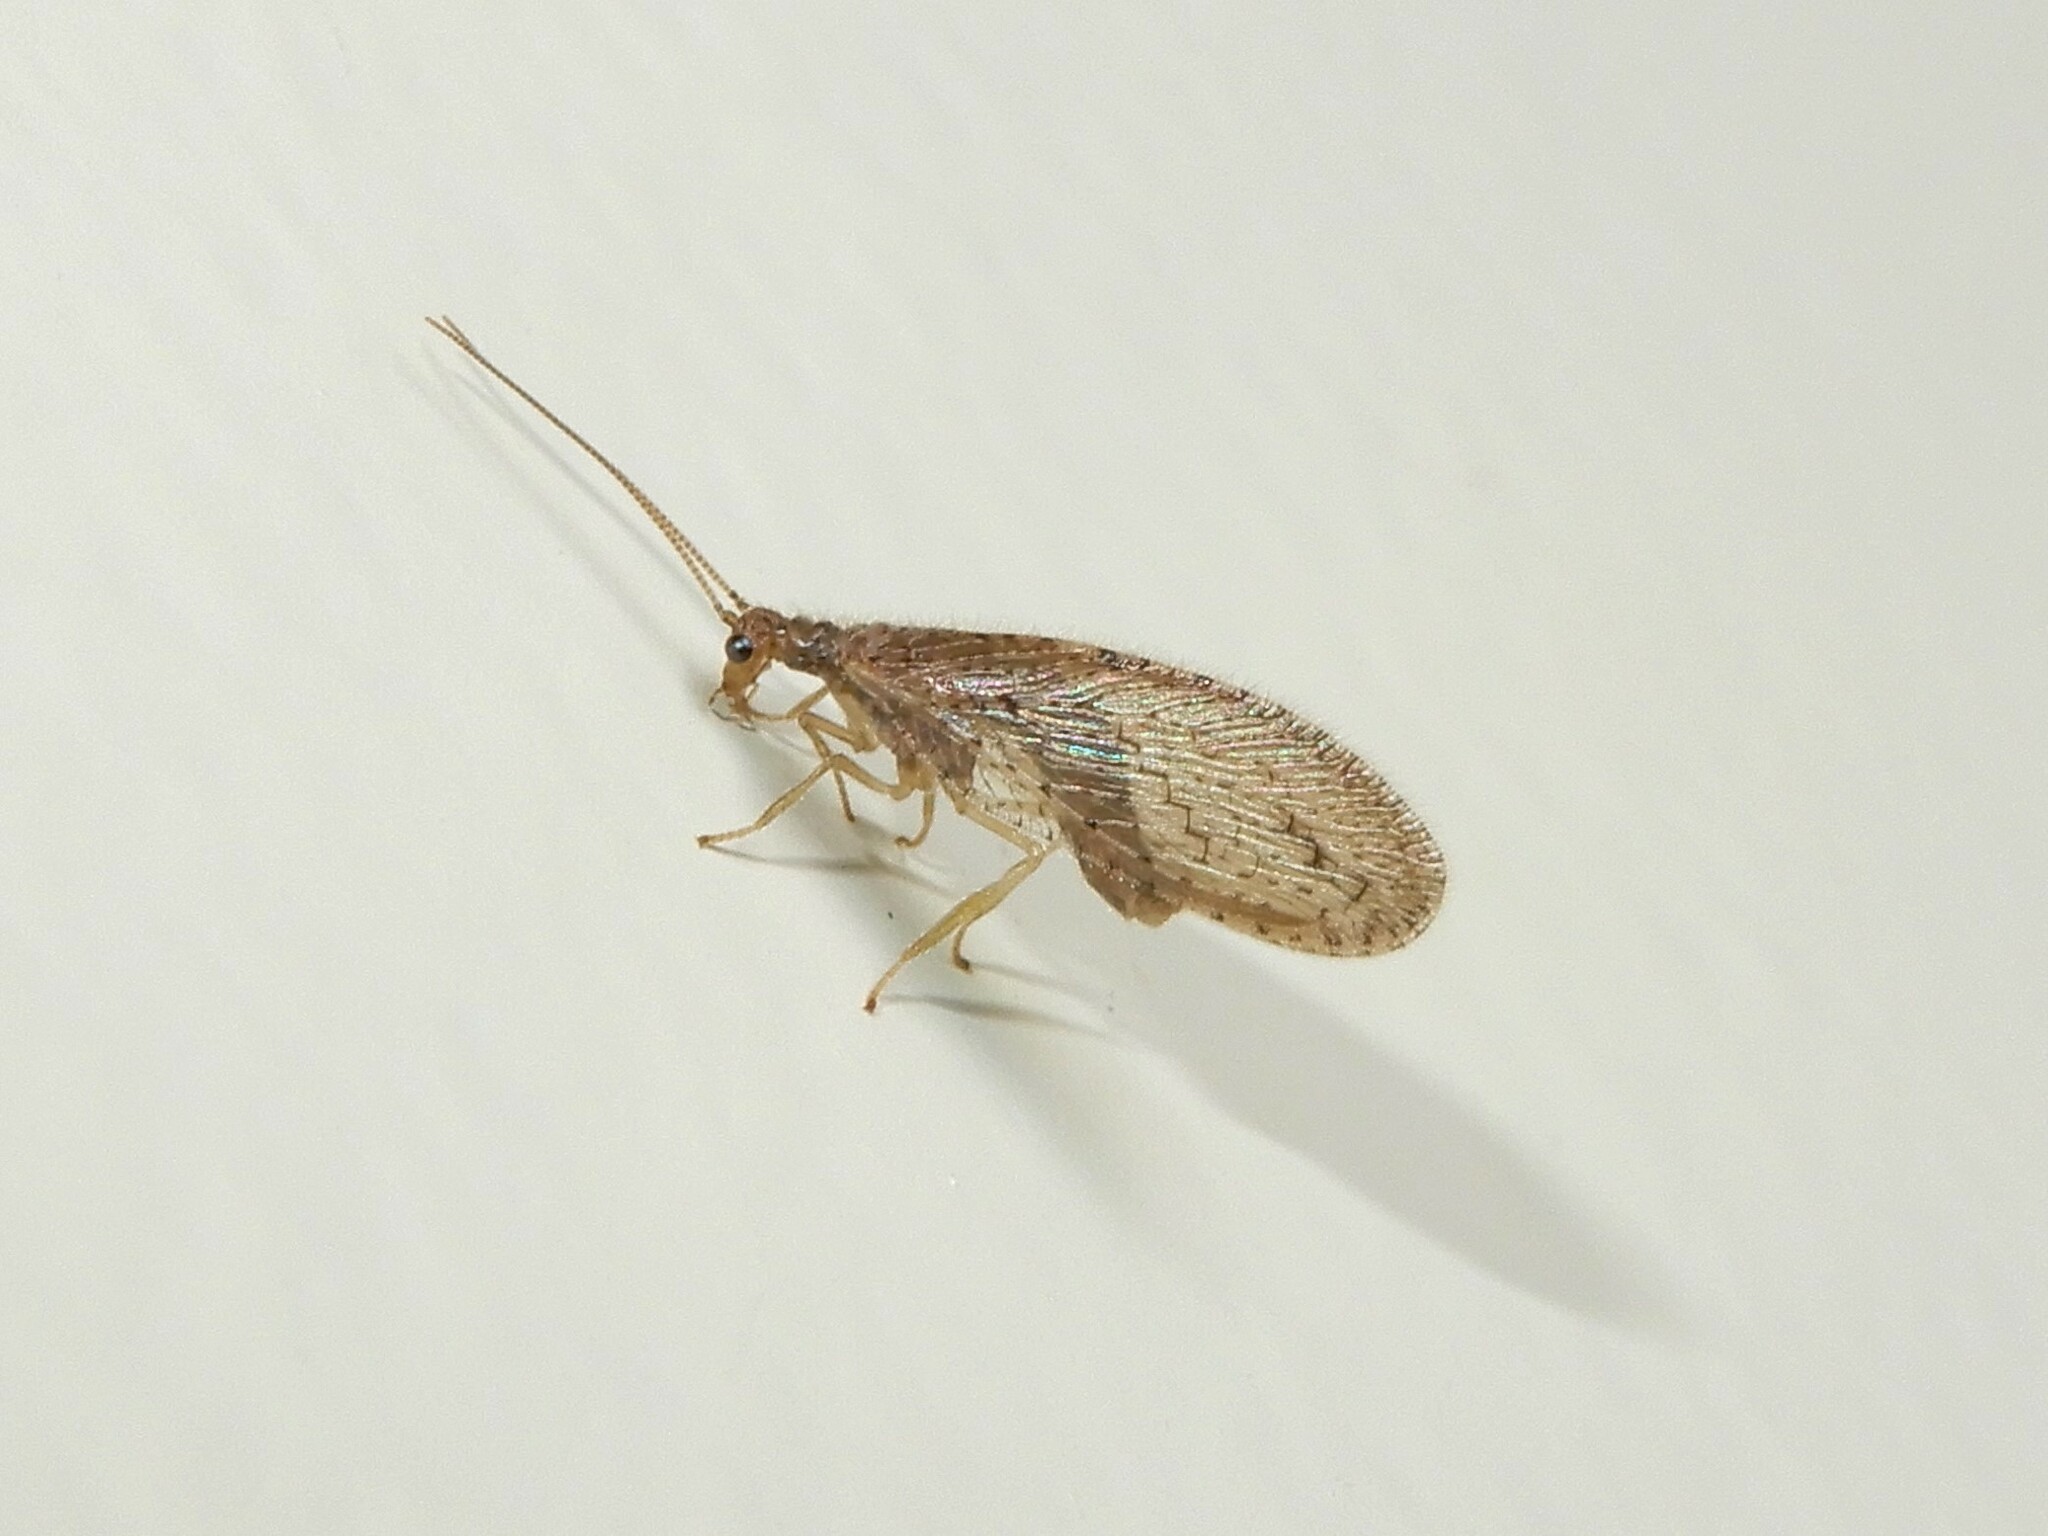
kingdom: Animalia
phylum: Arthropoda
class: Insecta
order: Neuroptera
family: Hemerobiidae
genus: Micromus
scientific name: Micromus tasmaniae
